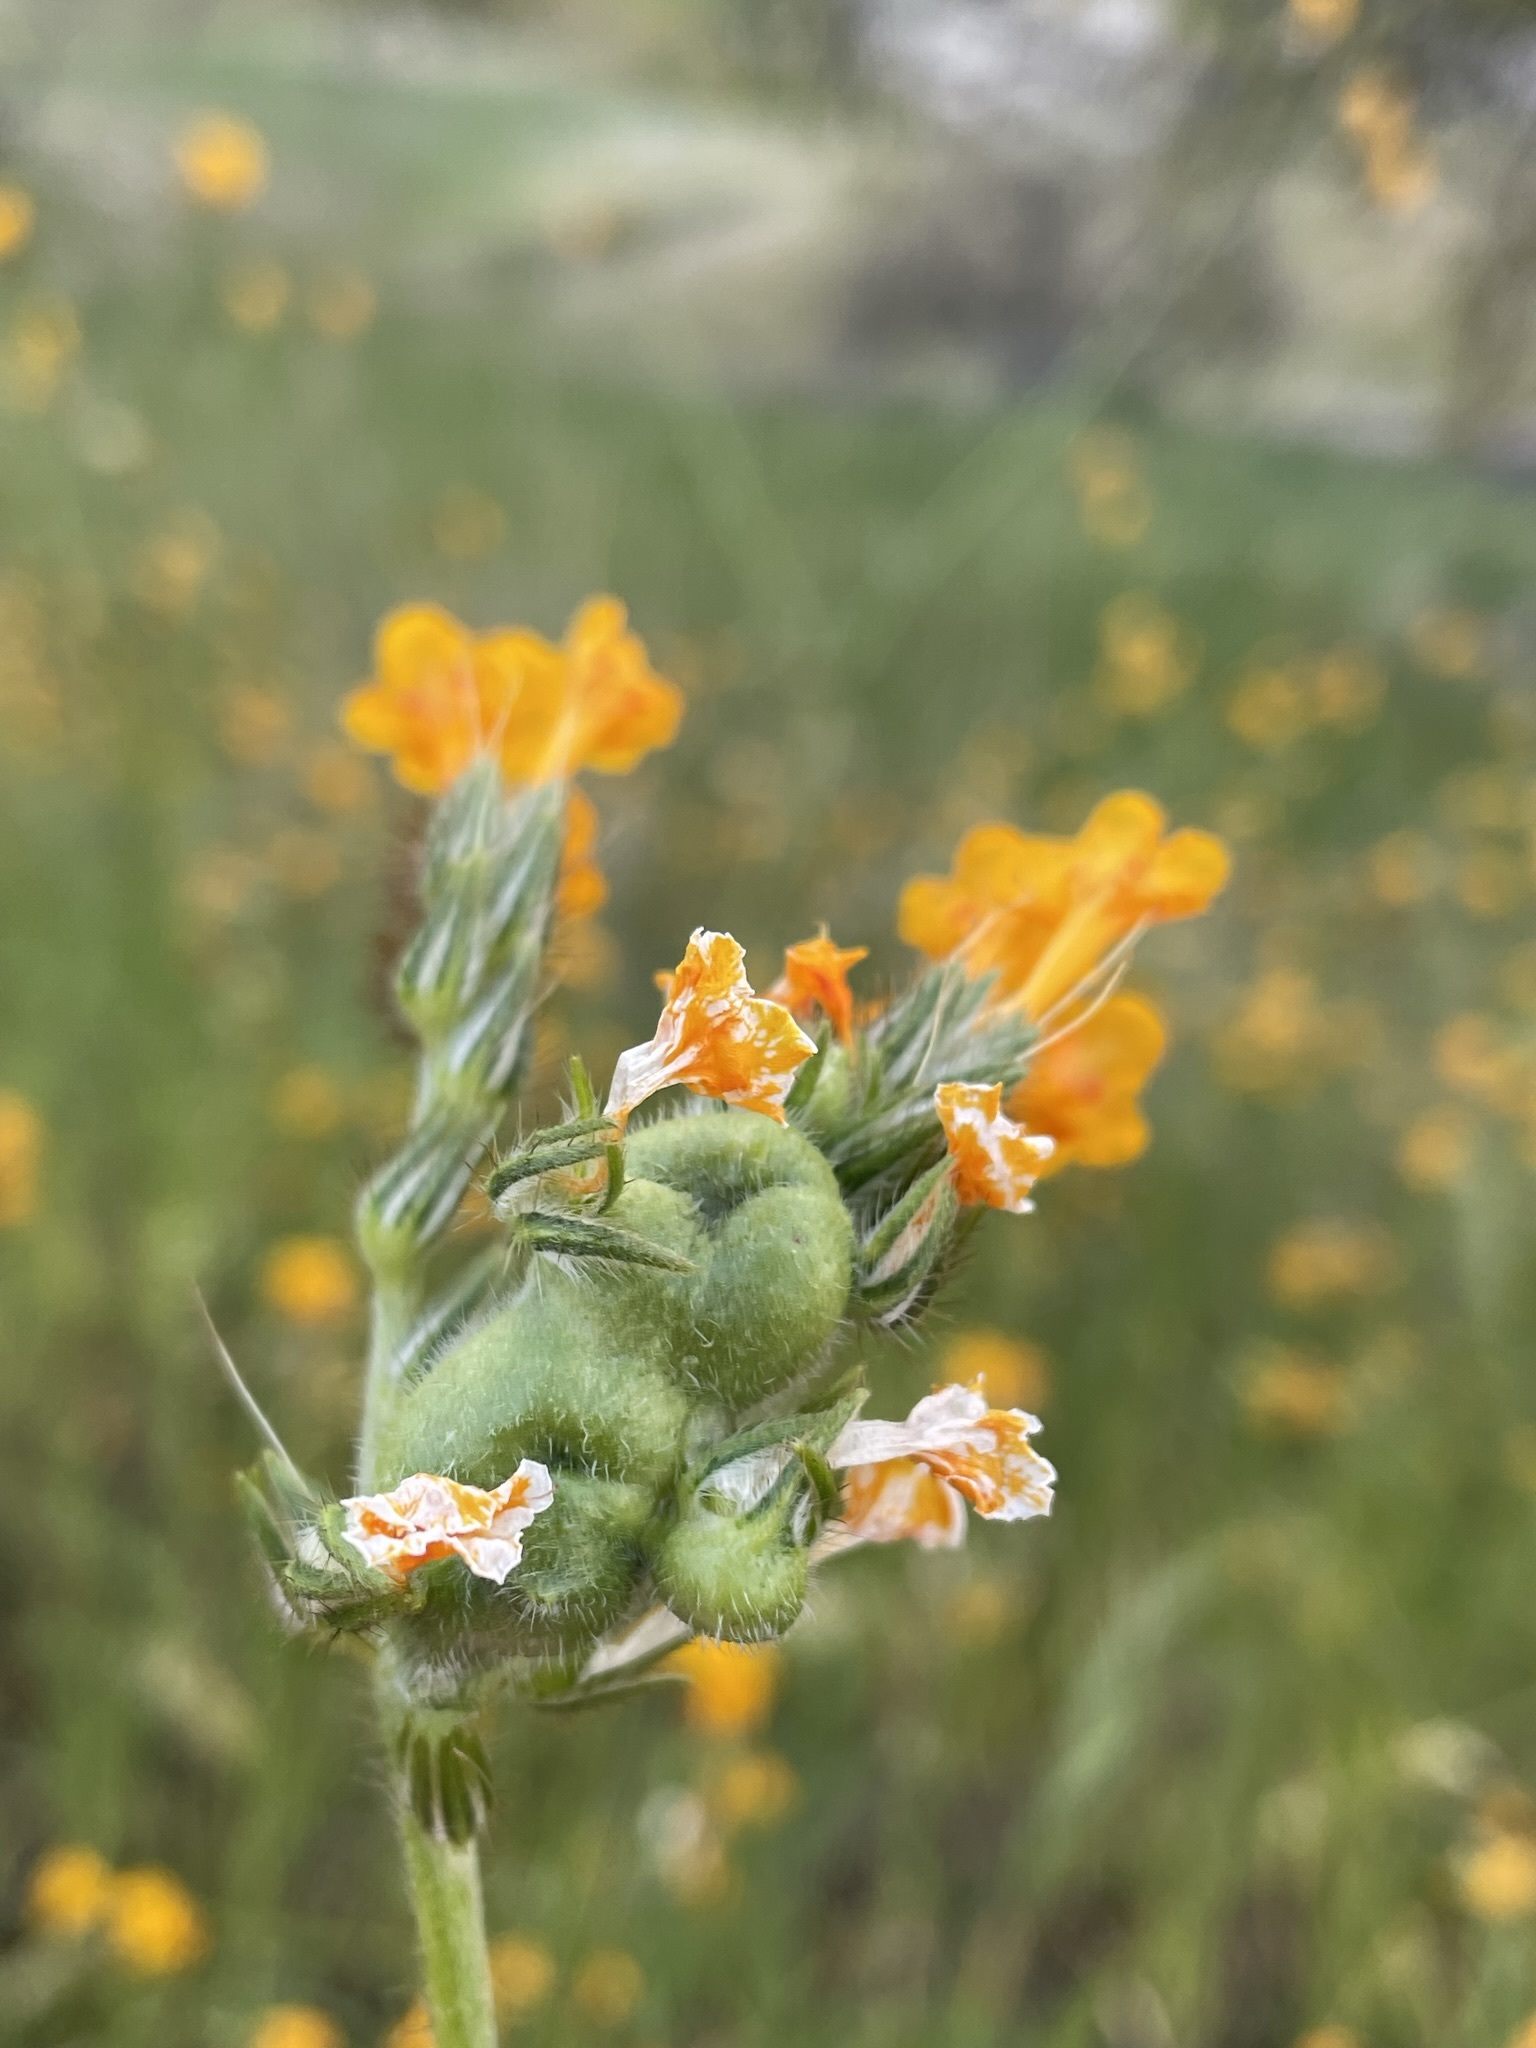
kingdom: Animalia
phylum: Arthropoda
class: Insecta
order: Diptera
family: Cecidomyiidae
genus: Schizomyia
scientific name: Schizomyia macrofila
